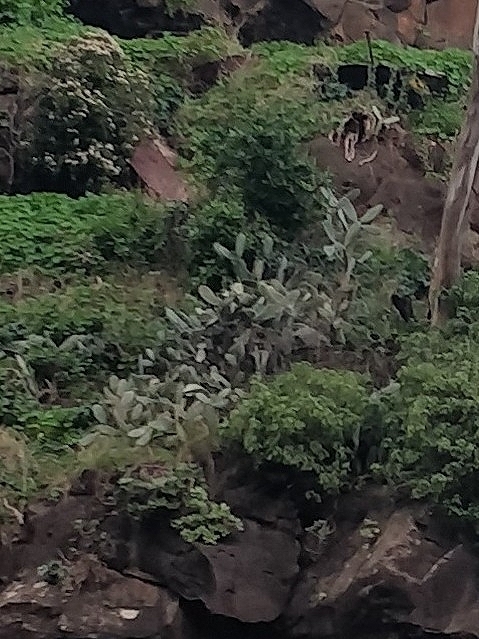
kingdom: Plantae
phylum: Tracheophyta
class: Magnoliopsida
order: Caryophyllales
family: Cactaceae
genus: Opuntia
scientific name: Opuntia ficus-indica
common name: Barbary fig
